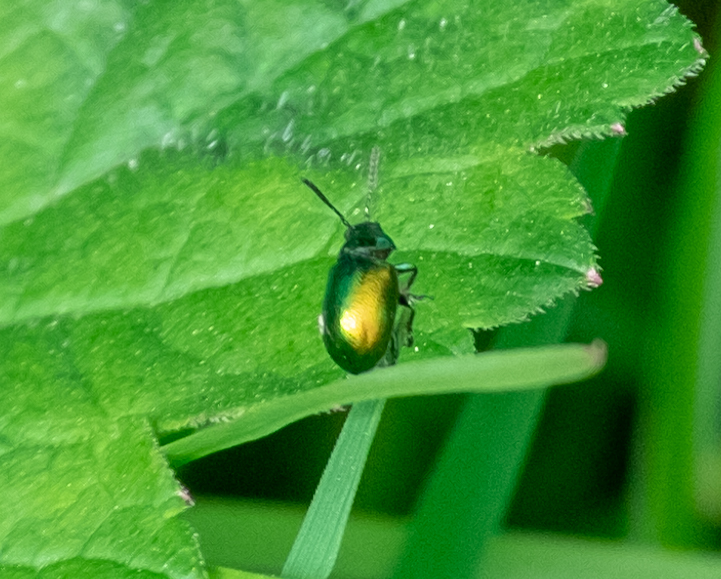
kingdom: Animalia
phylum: Arthropoda
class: Insecta
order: Coleoptera
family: Chrysomelidae
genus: Gastrophysa
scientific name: Gastrophysa viridula
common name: Green dock beetle
